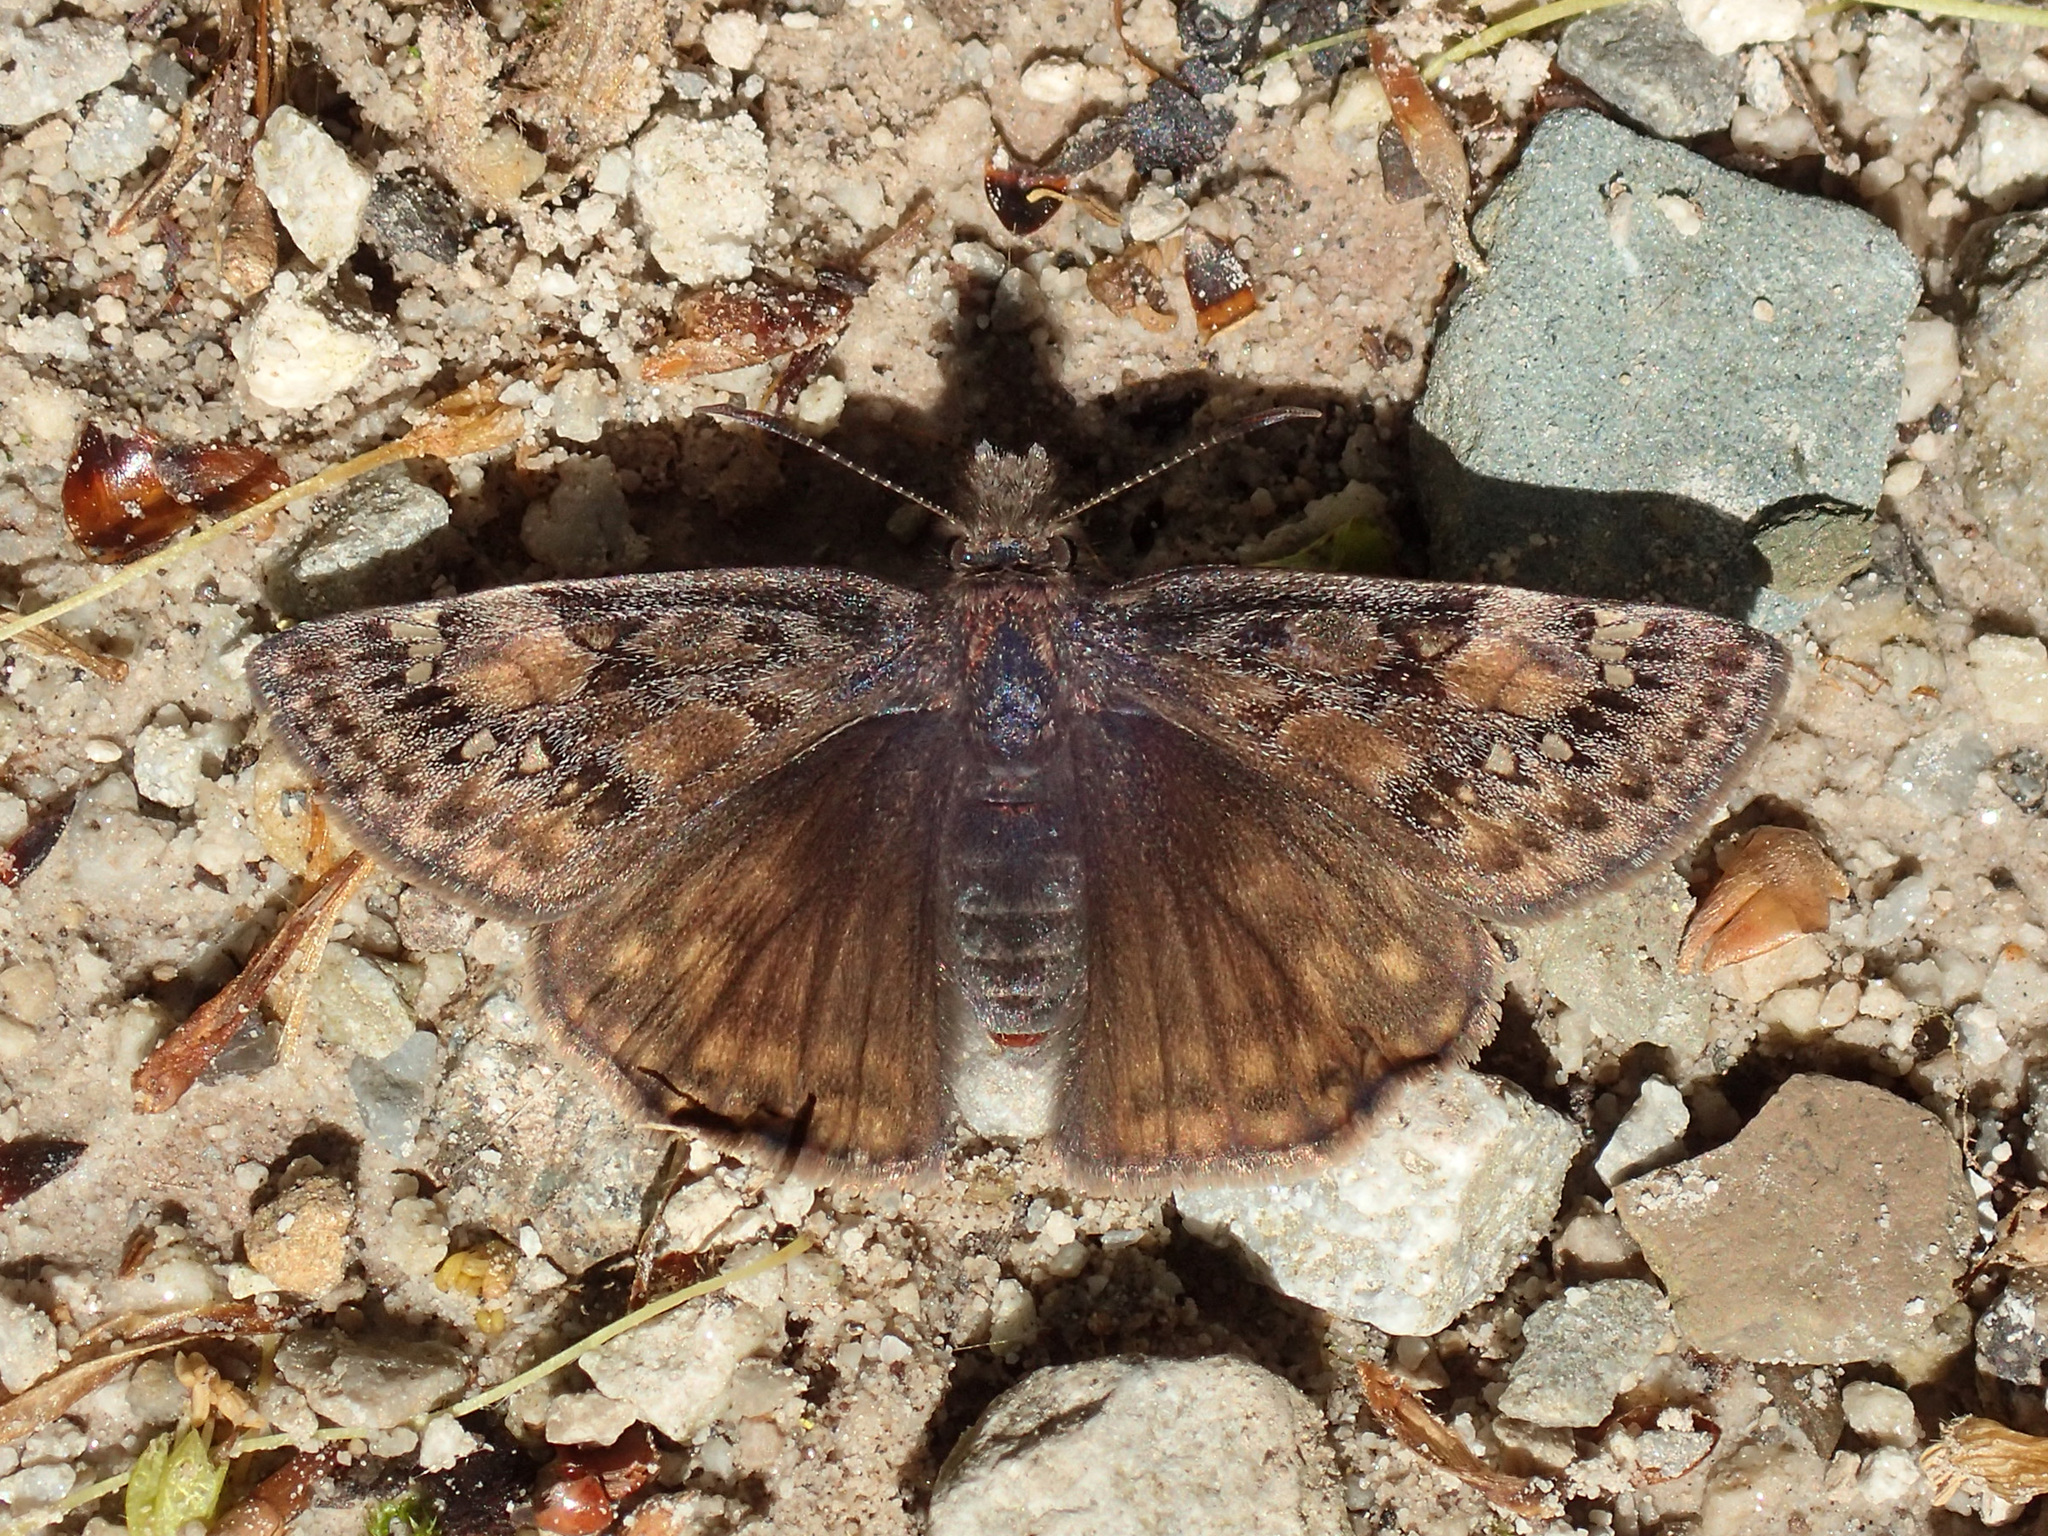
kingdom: Animalia
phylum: Arthropoda
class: Insecta
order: Lepidoptera
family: Hesperiidae
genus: Erynnis
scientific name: Erynnis juvenalis
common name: Juvenal's duskywing
